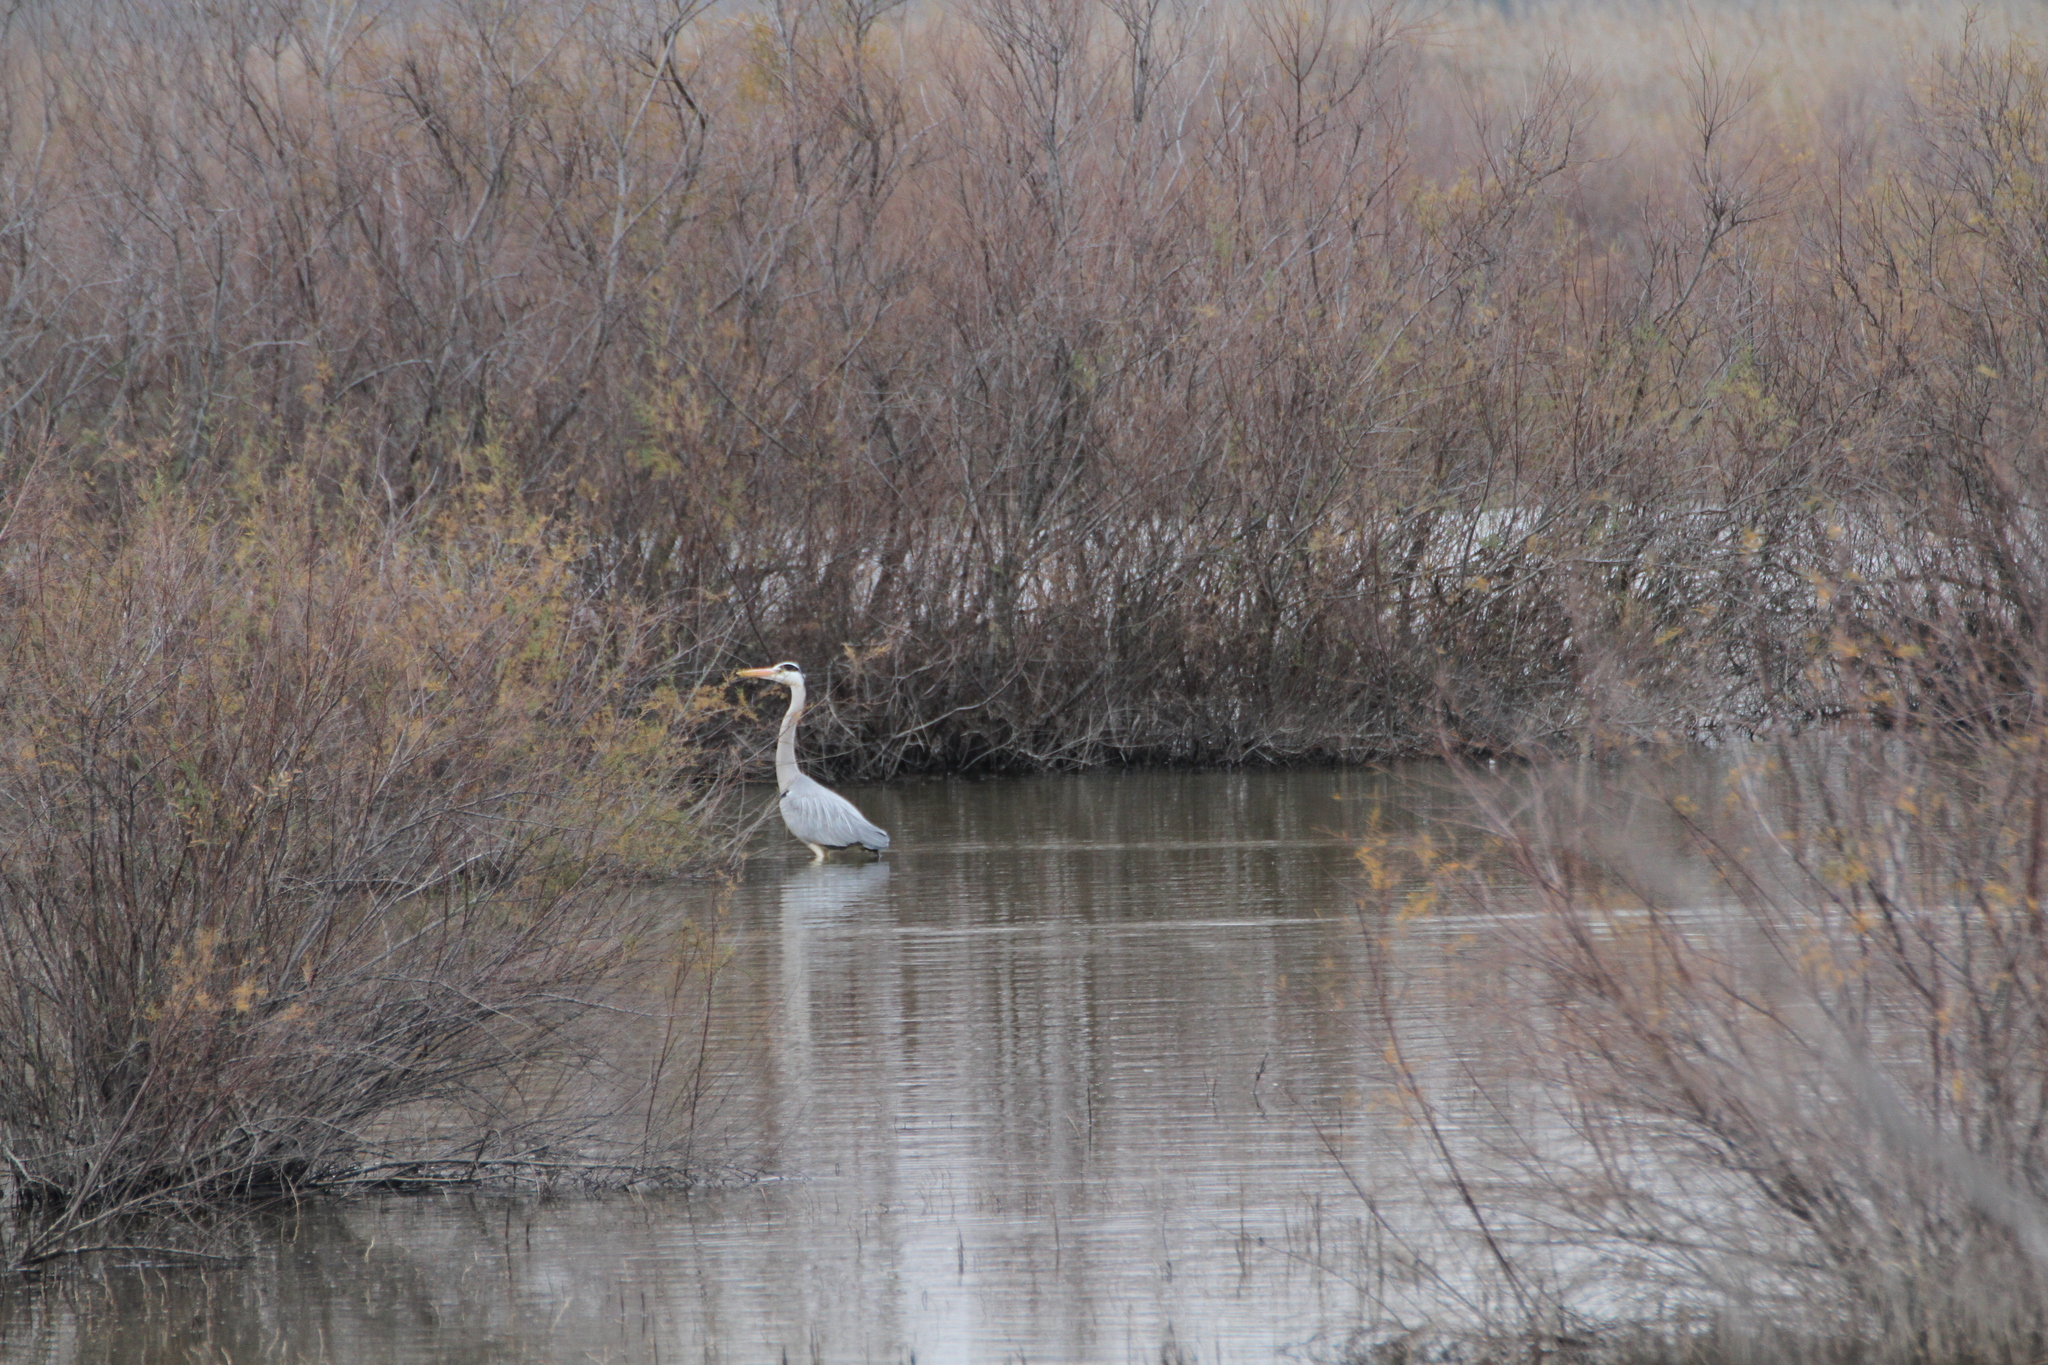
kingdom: Animalia
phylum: Chordata
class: Aves
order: Pelecaniformes
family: Ardeidae
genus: Ardea
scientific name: Ardea cinerea
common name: Grey heron
